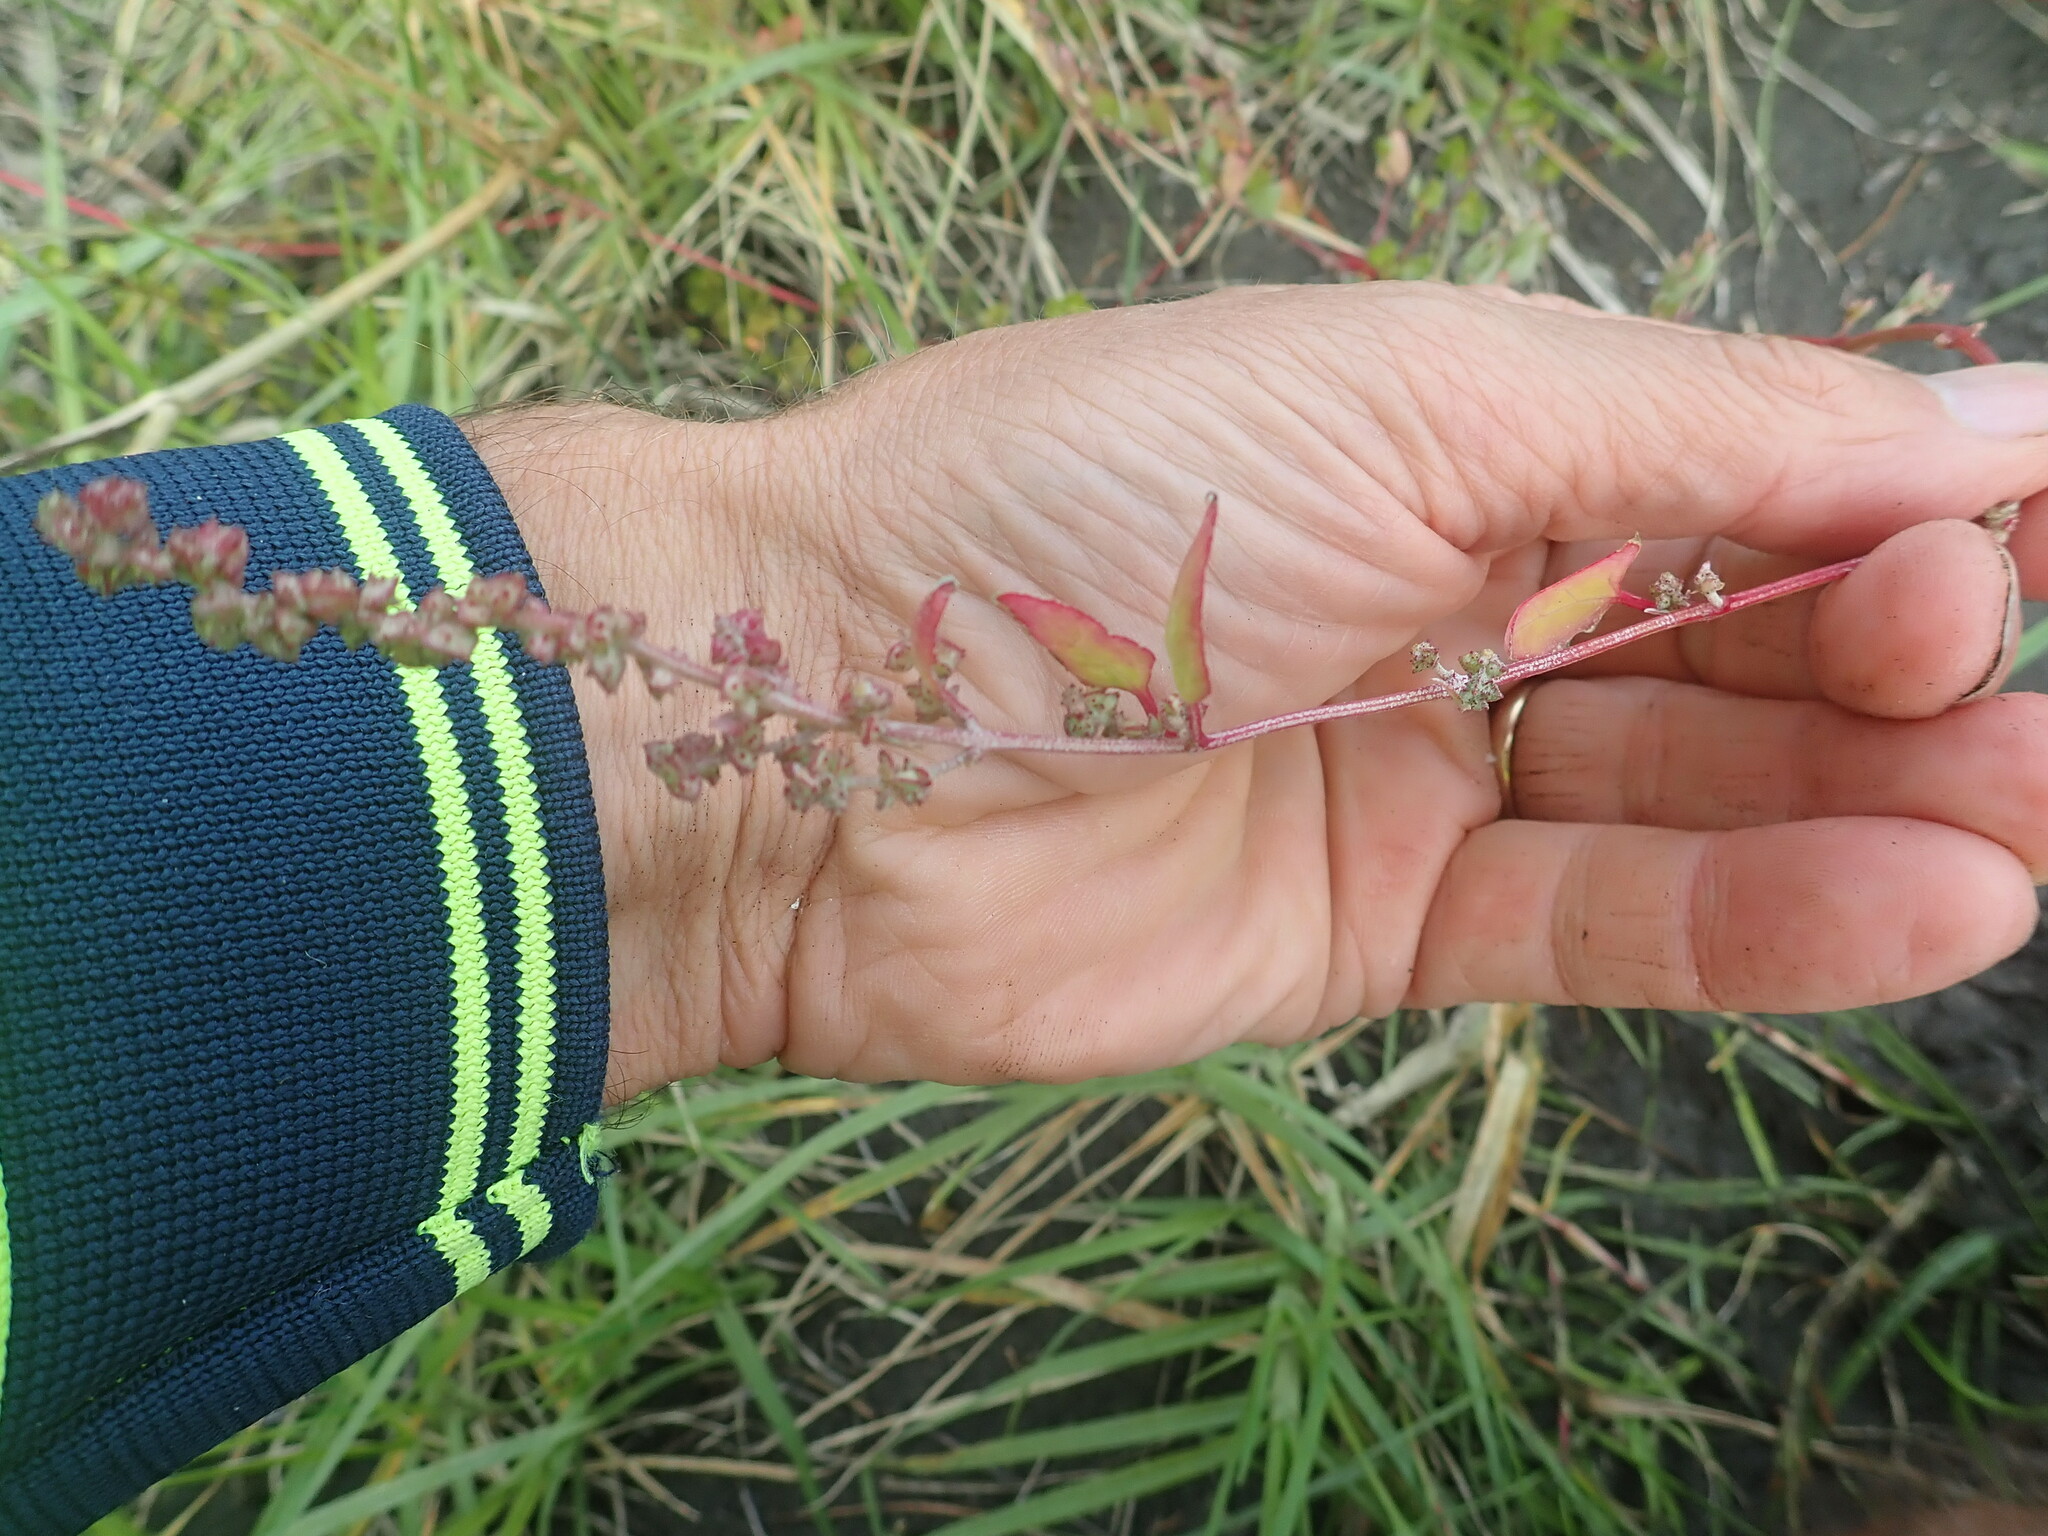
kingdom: Plantae
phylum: Tracheophyta
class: Magnoliopsida
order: Caryophyllales
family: Amaranthaceae
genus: Atriplex
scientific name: Atriplex prostrata
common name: Spear-leaved orache
